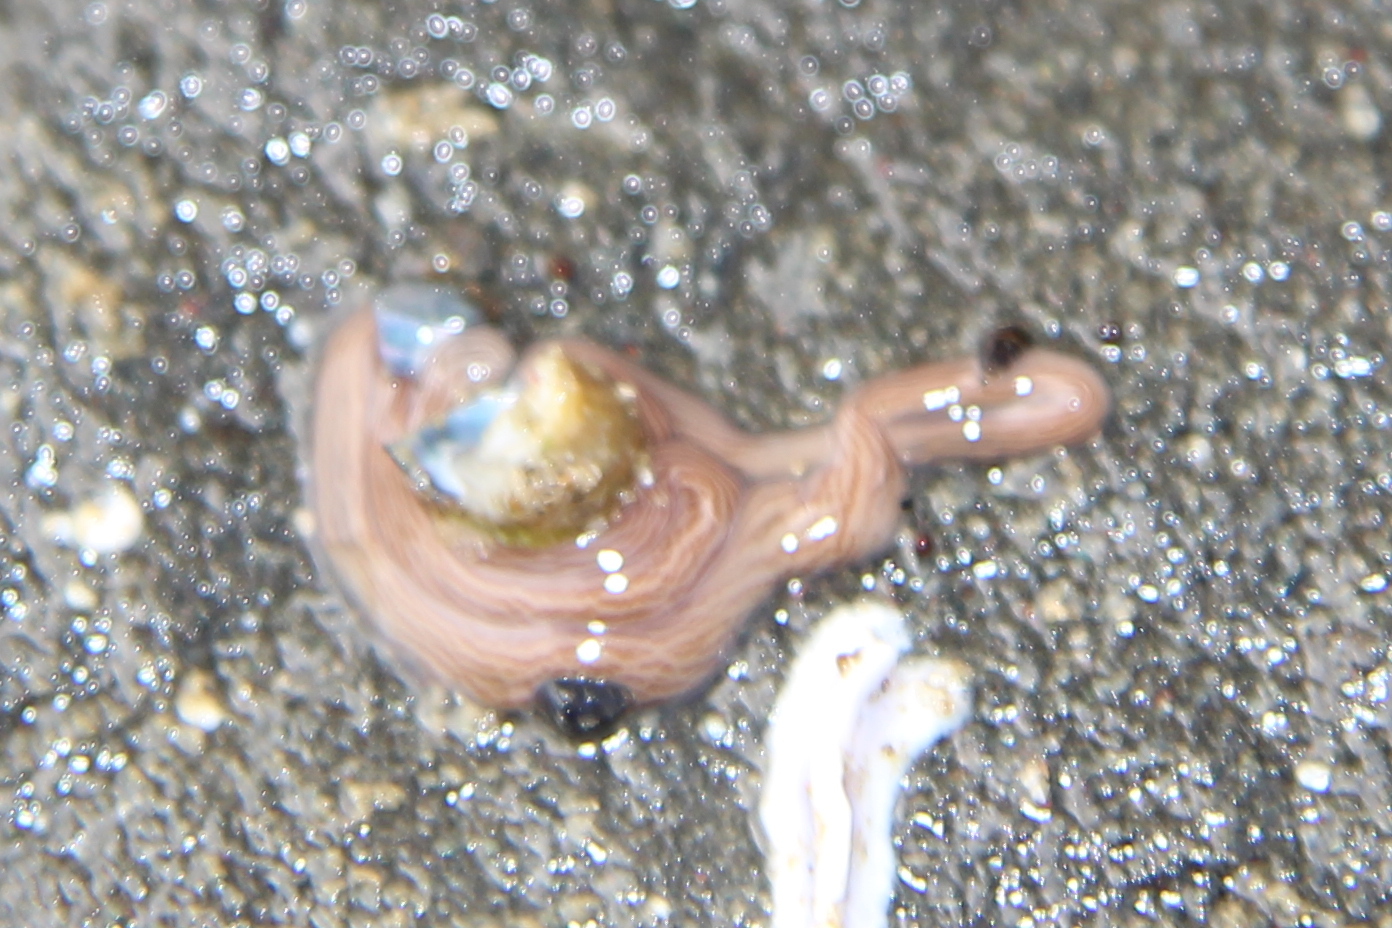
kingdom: Animalia
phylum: Nemertea
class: Pilidiophora
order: Heteronemertea
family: Valenciniidae
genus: Baseodiscus
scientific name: Baseodiscus delineatus
